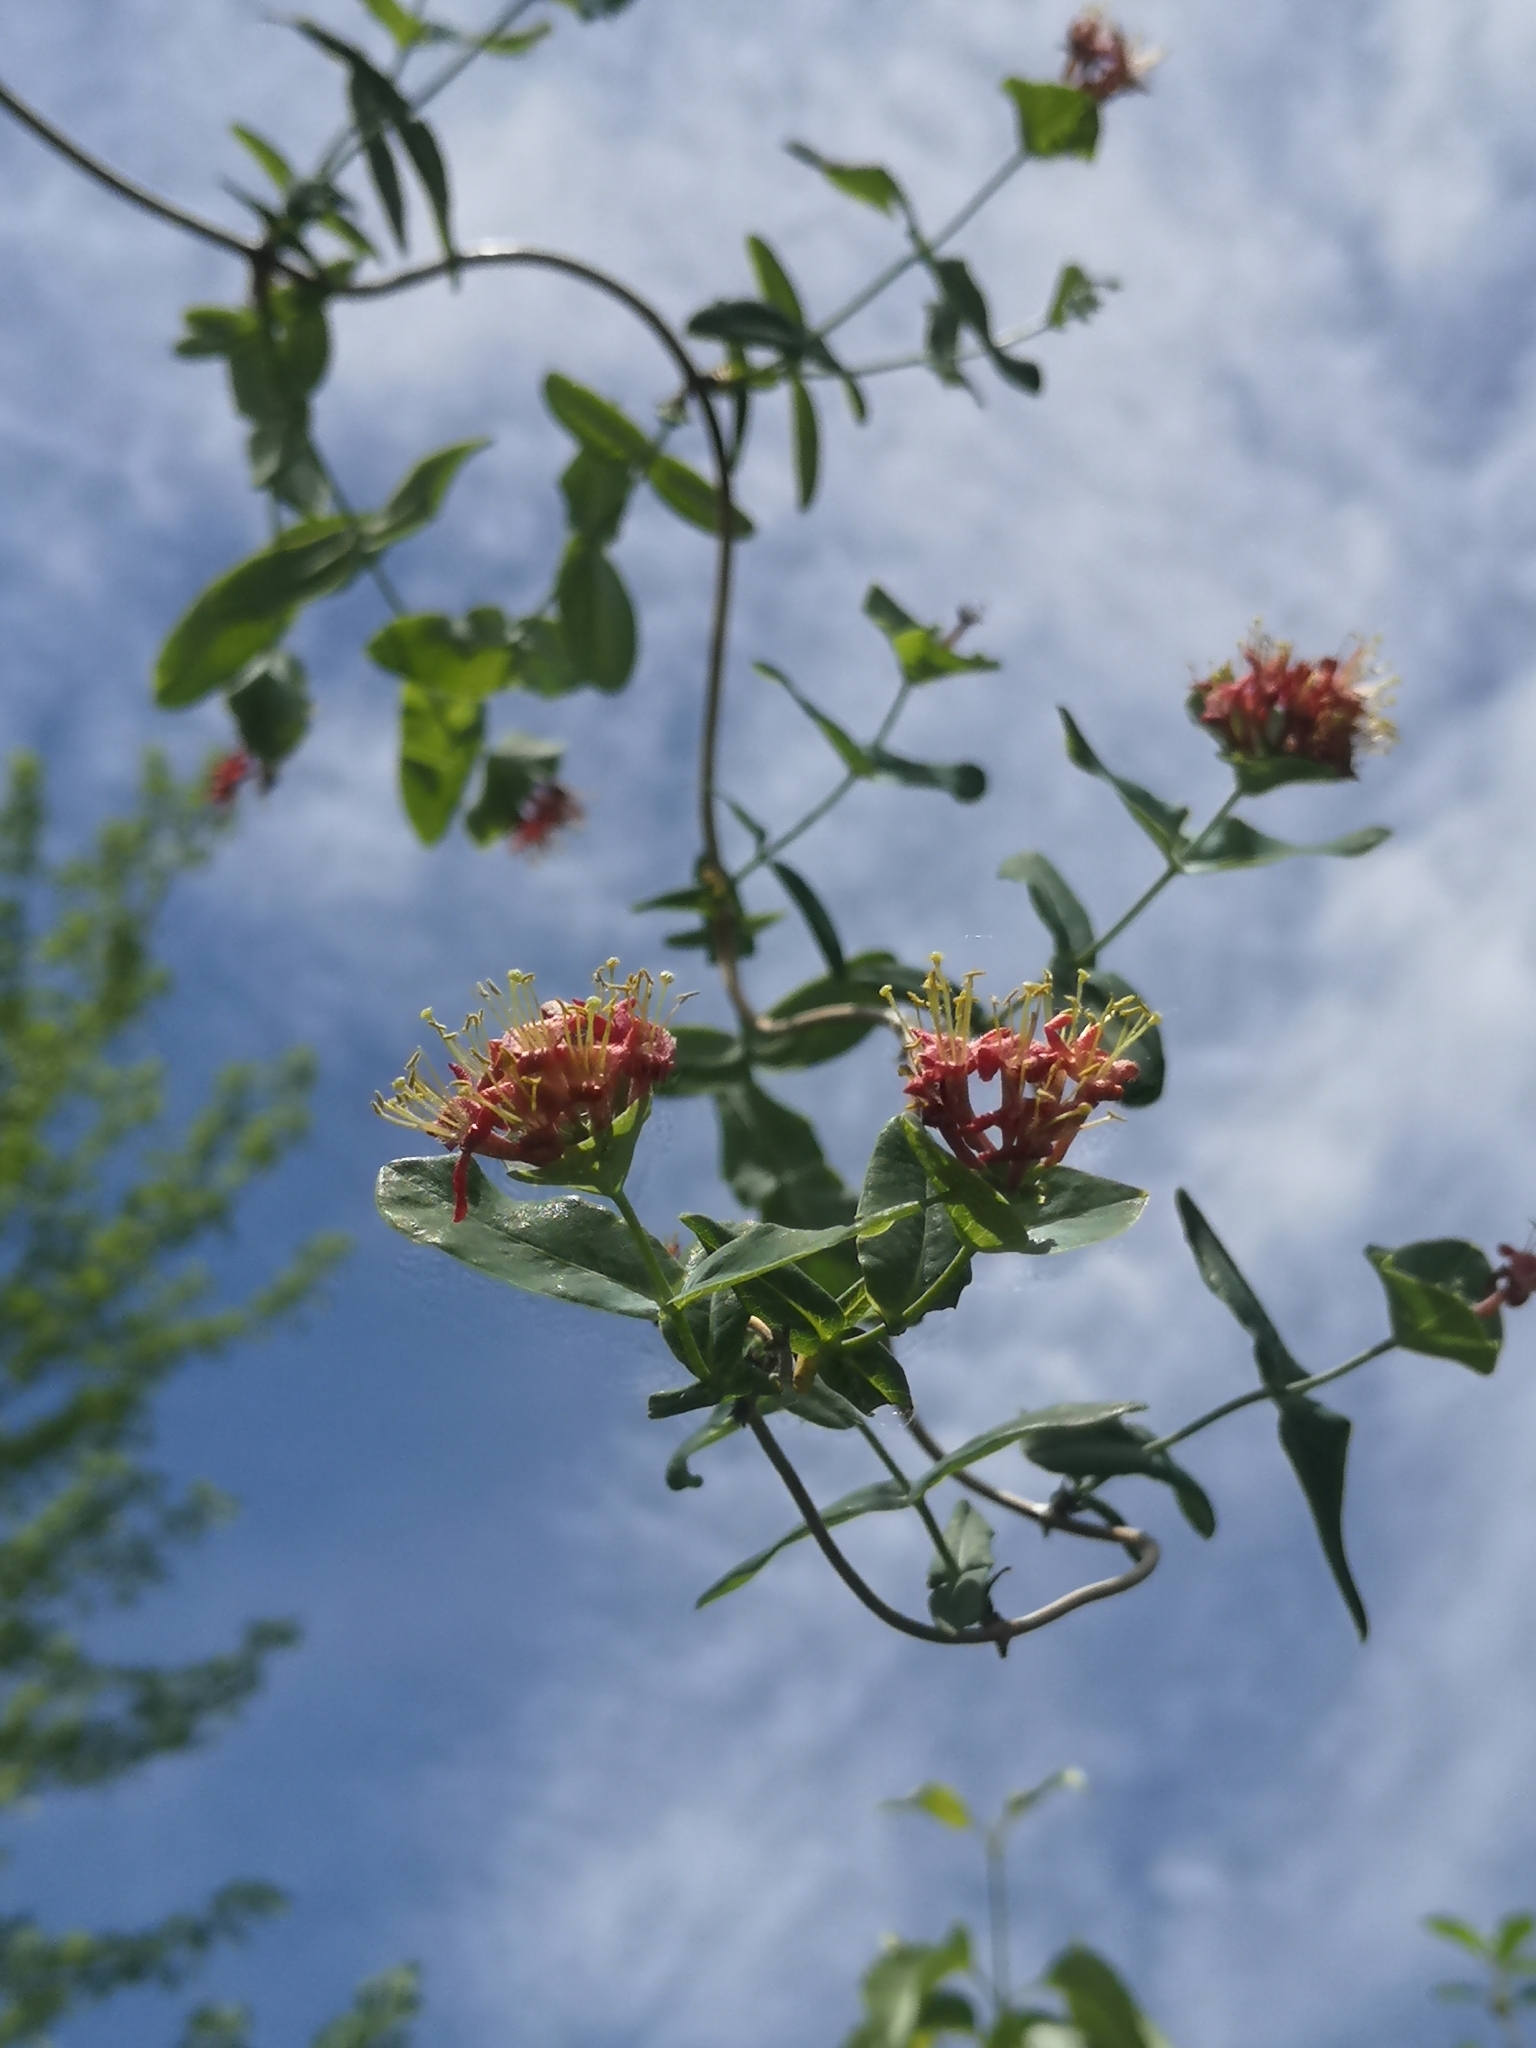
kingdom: Plantae
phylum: Tracheophyta
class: Magnoliopsida
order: Dipsacales
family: Caprifoliaceae
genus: Lonicera
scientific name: Lonicera dioica
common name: Limber honeysuckle
